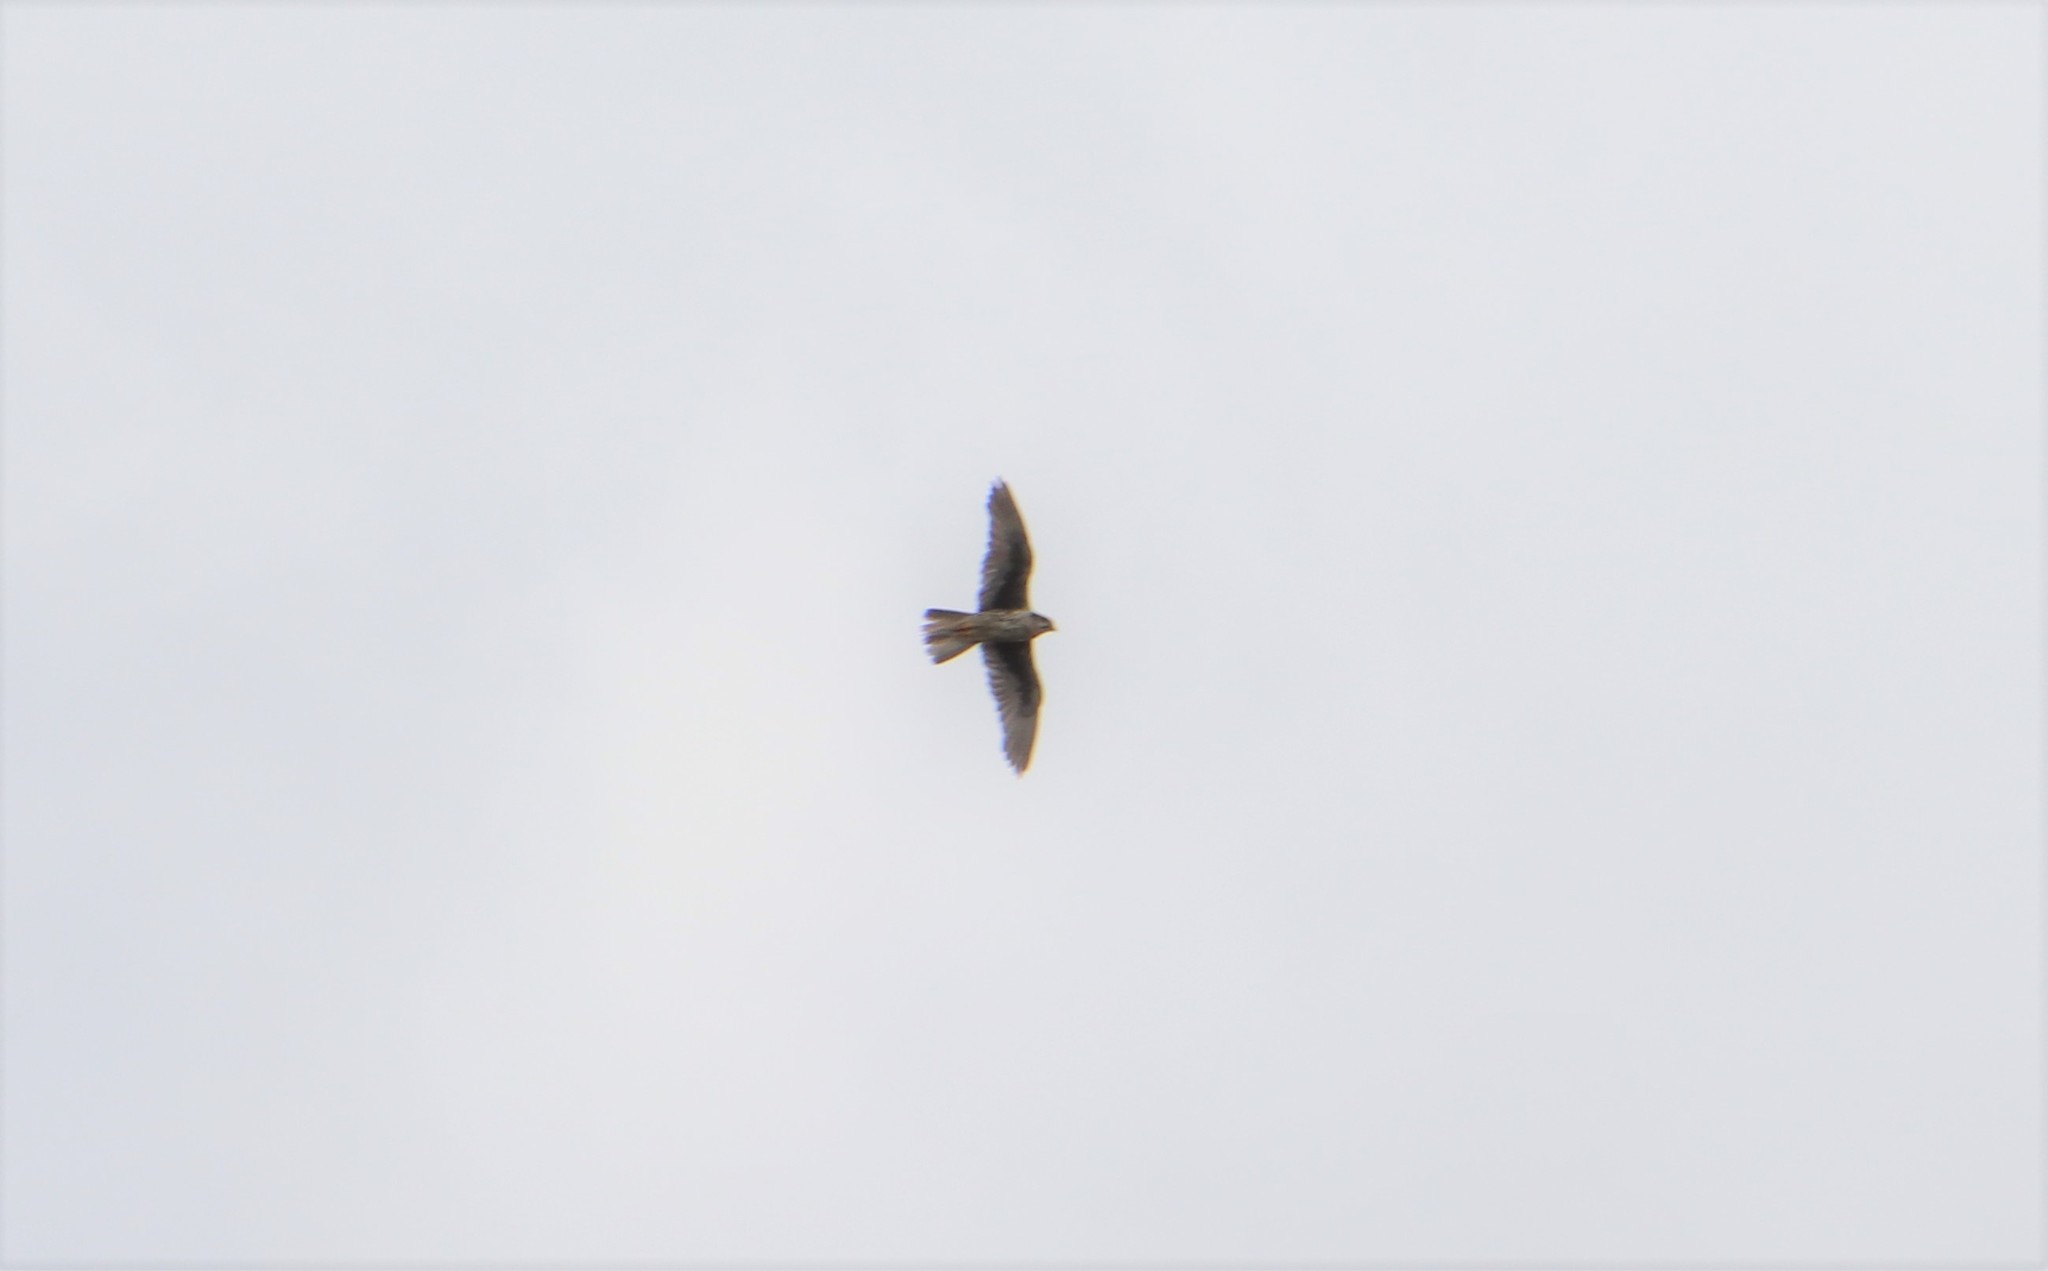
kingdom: Animalia
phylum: Chordata
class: Aves
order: Falconiformes
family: Falconidae
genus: Falco
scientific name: Falco mexicanus
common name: Prairie falcon
